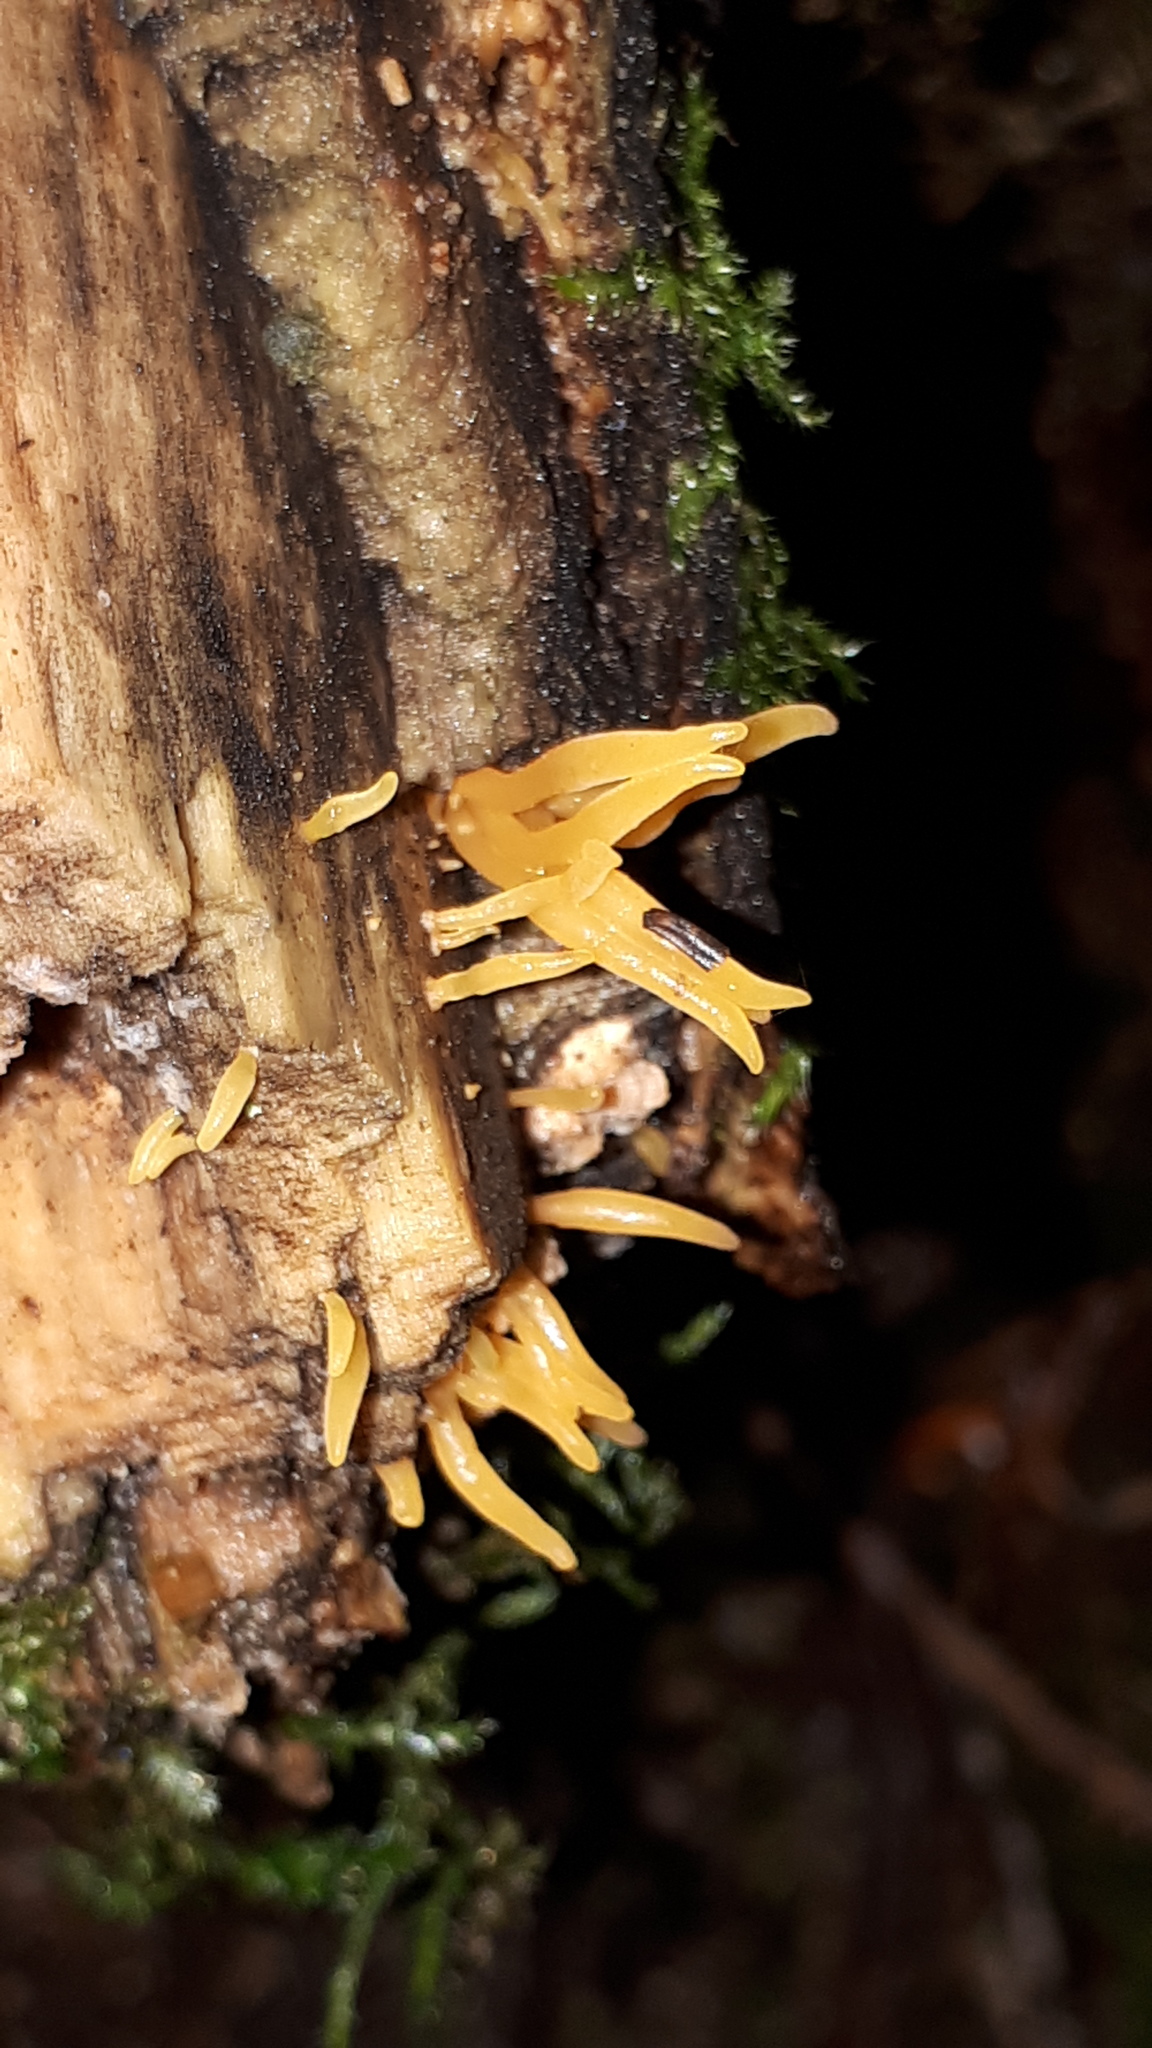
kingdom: Fungi
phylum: Basidiomycota
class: Dacrymycetes
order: Dacrymycetales
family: Dacrymycetaceae
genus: Calocera
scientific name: Calocera cornea
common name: Small stagshorn
